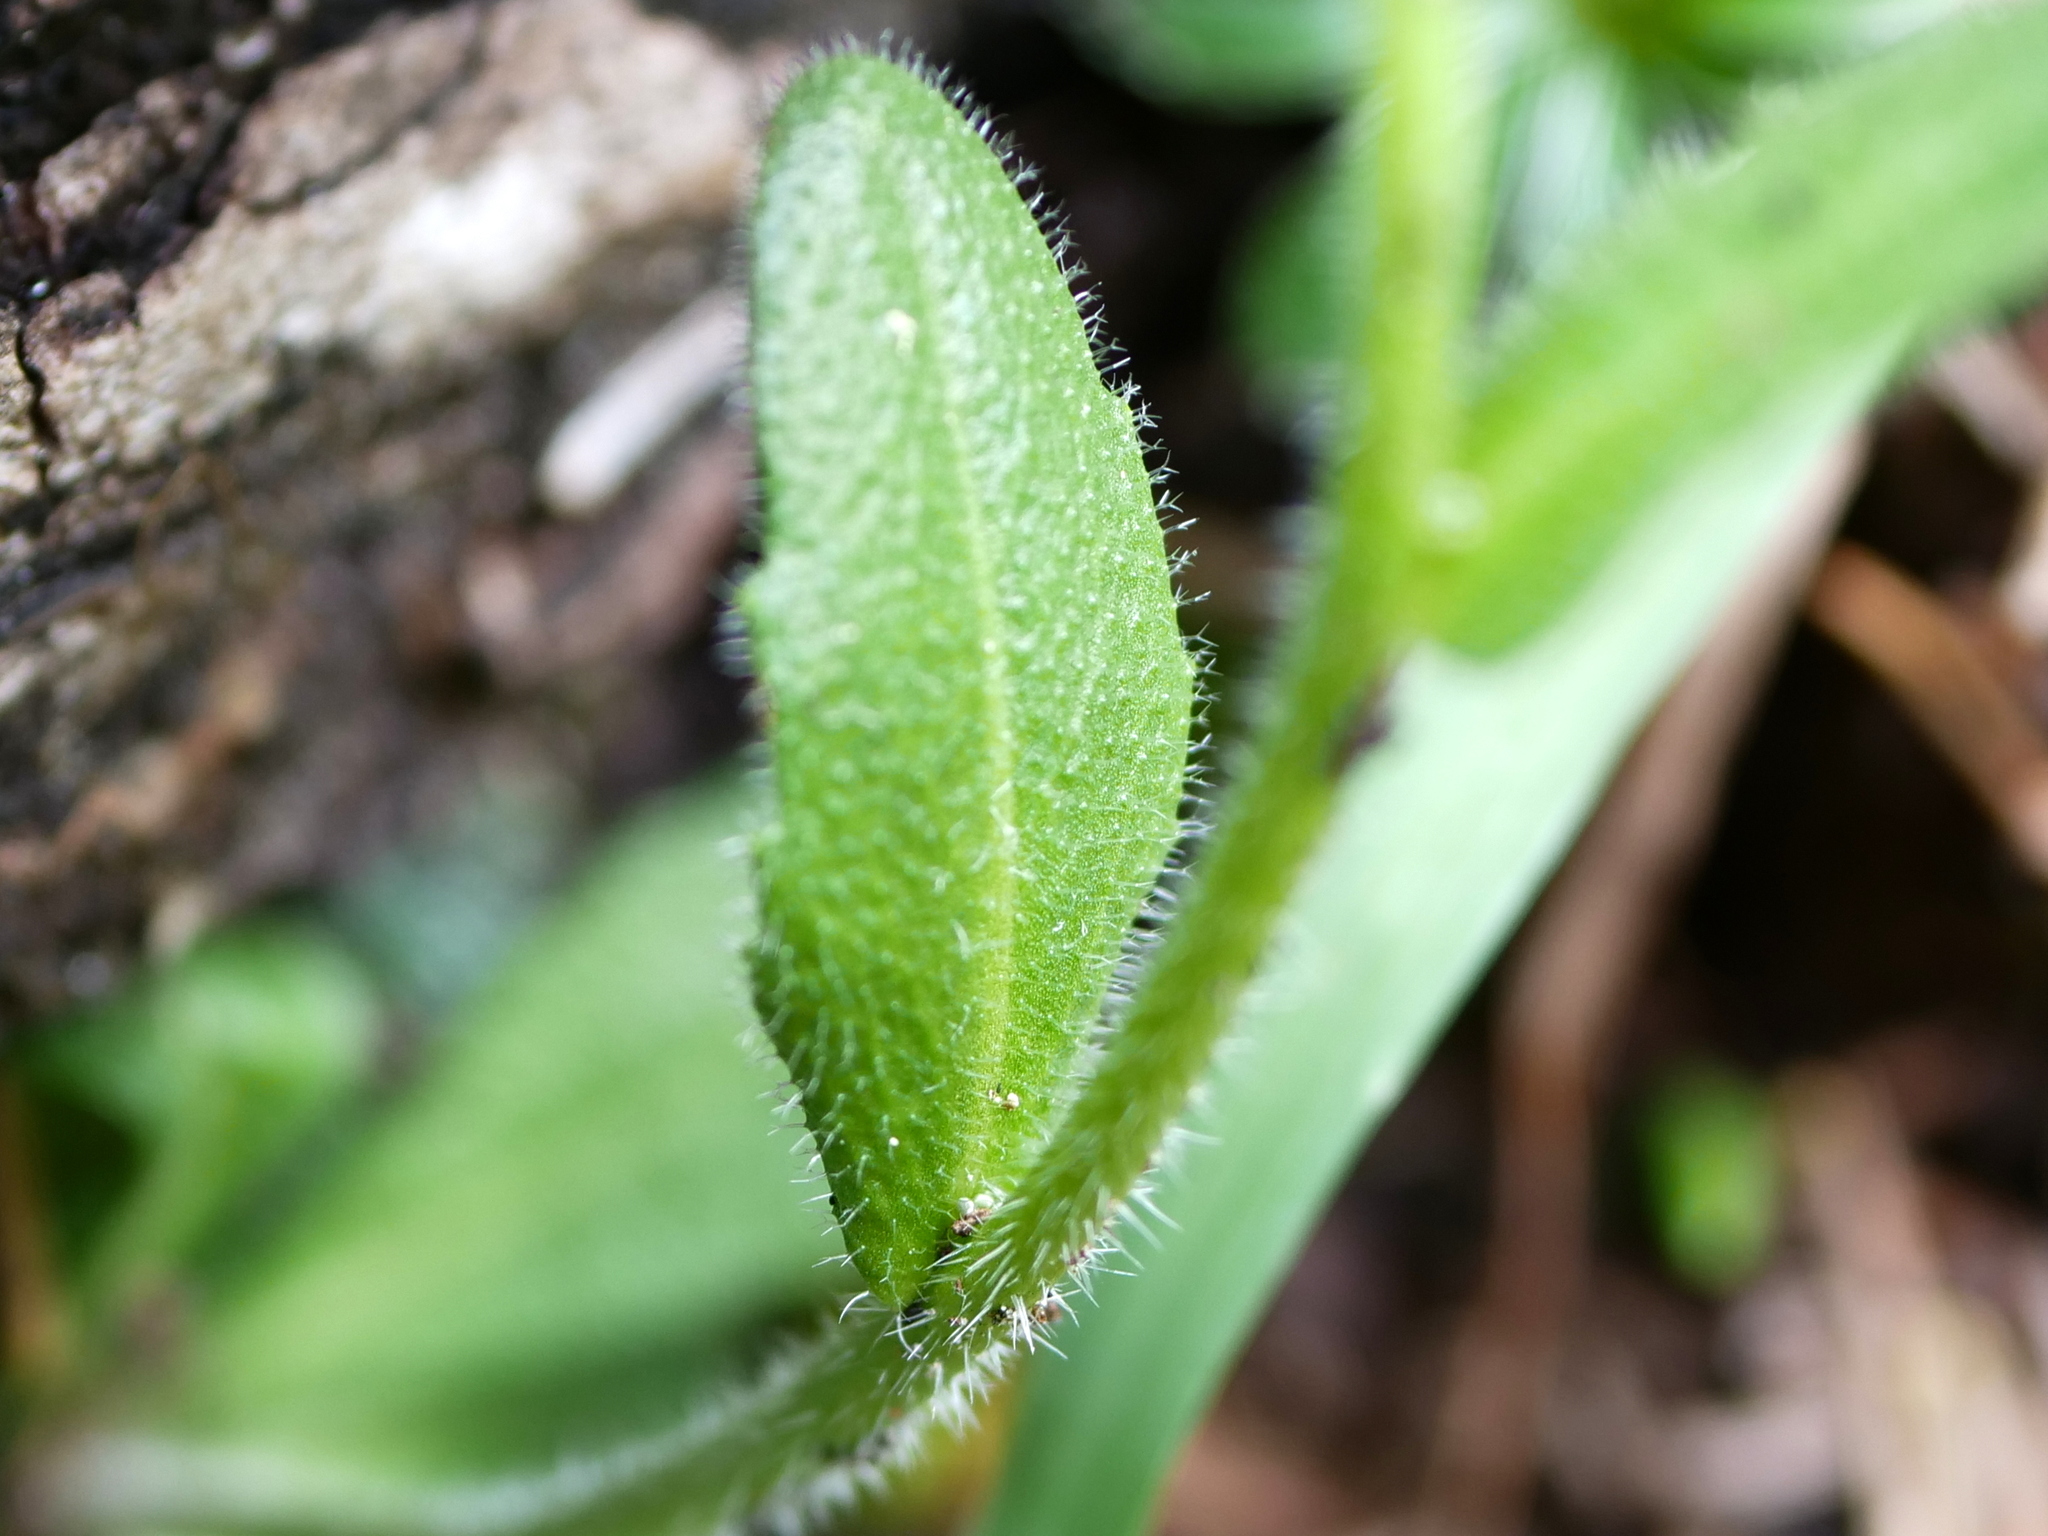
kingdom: Plantae
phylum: Tracheophyta
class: Magnoliopsida
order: Brassicales
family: Brassicaceae
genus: Arabis
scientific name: Arabis ciliata
